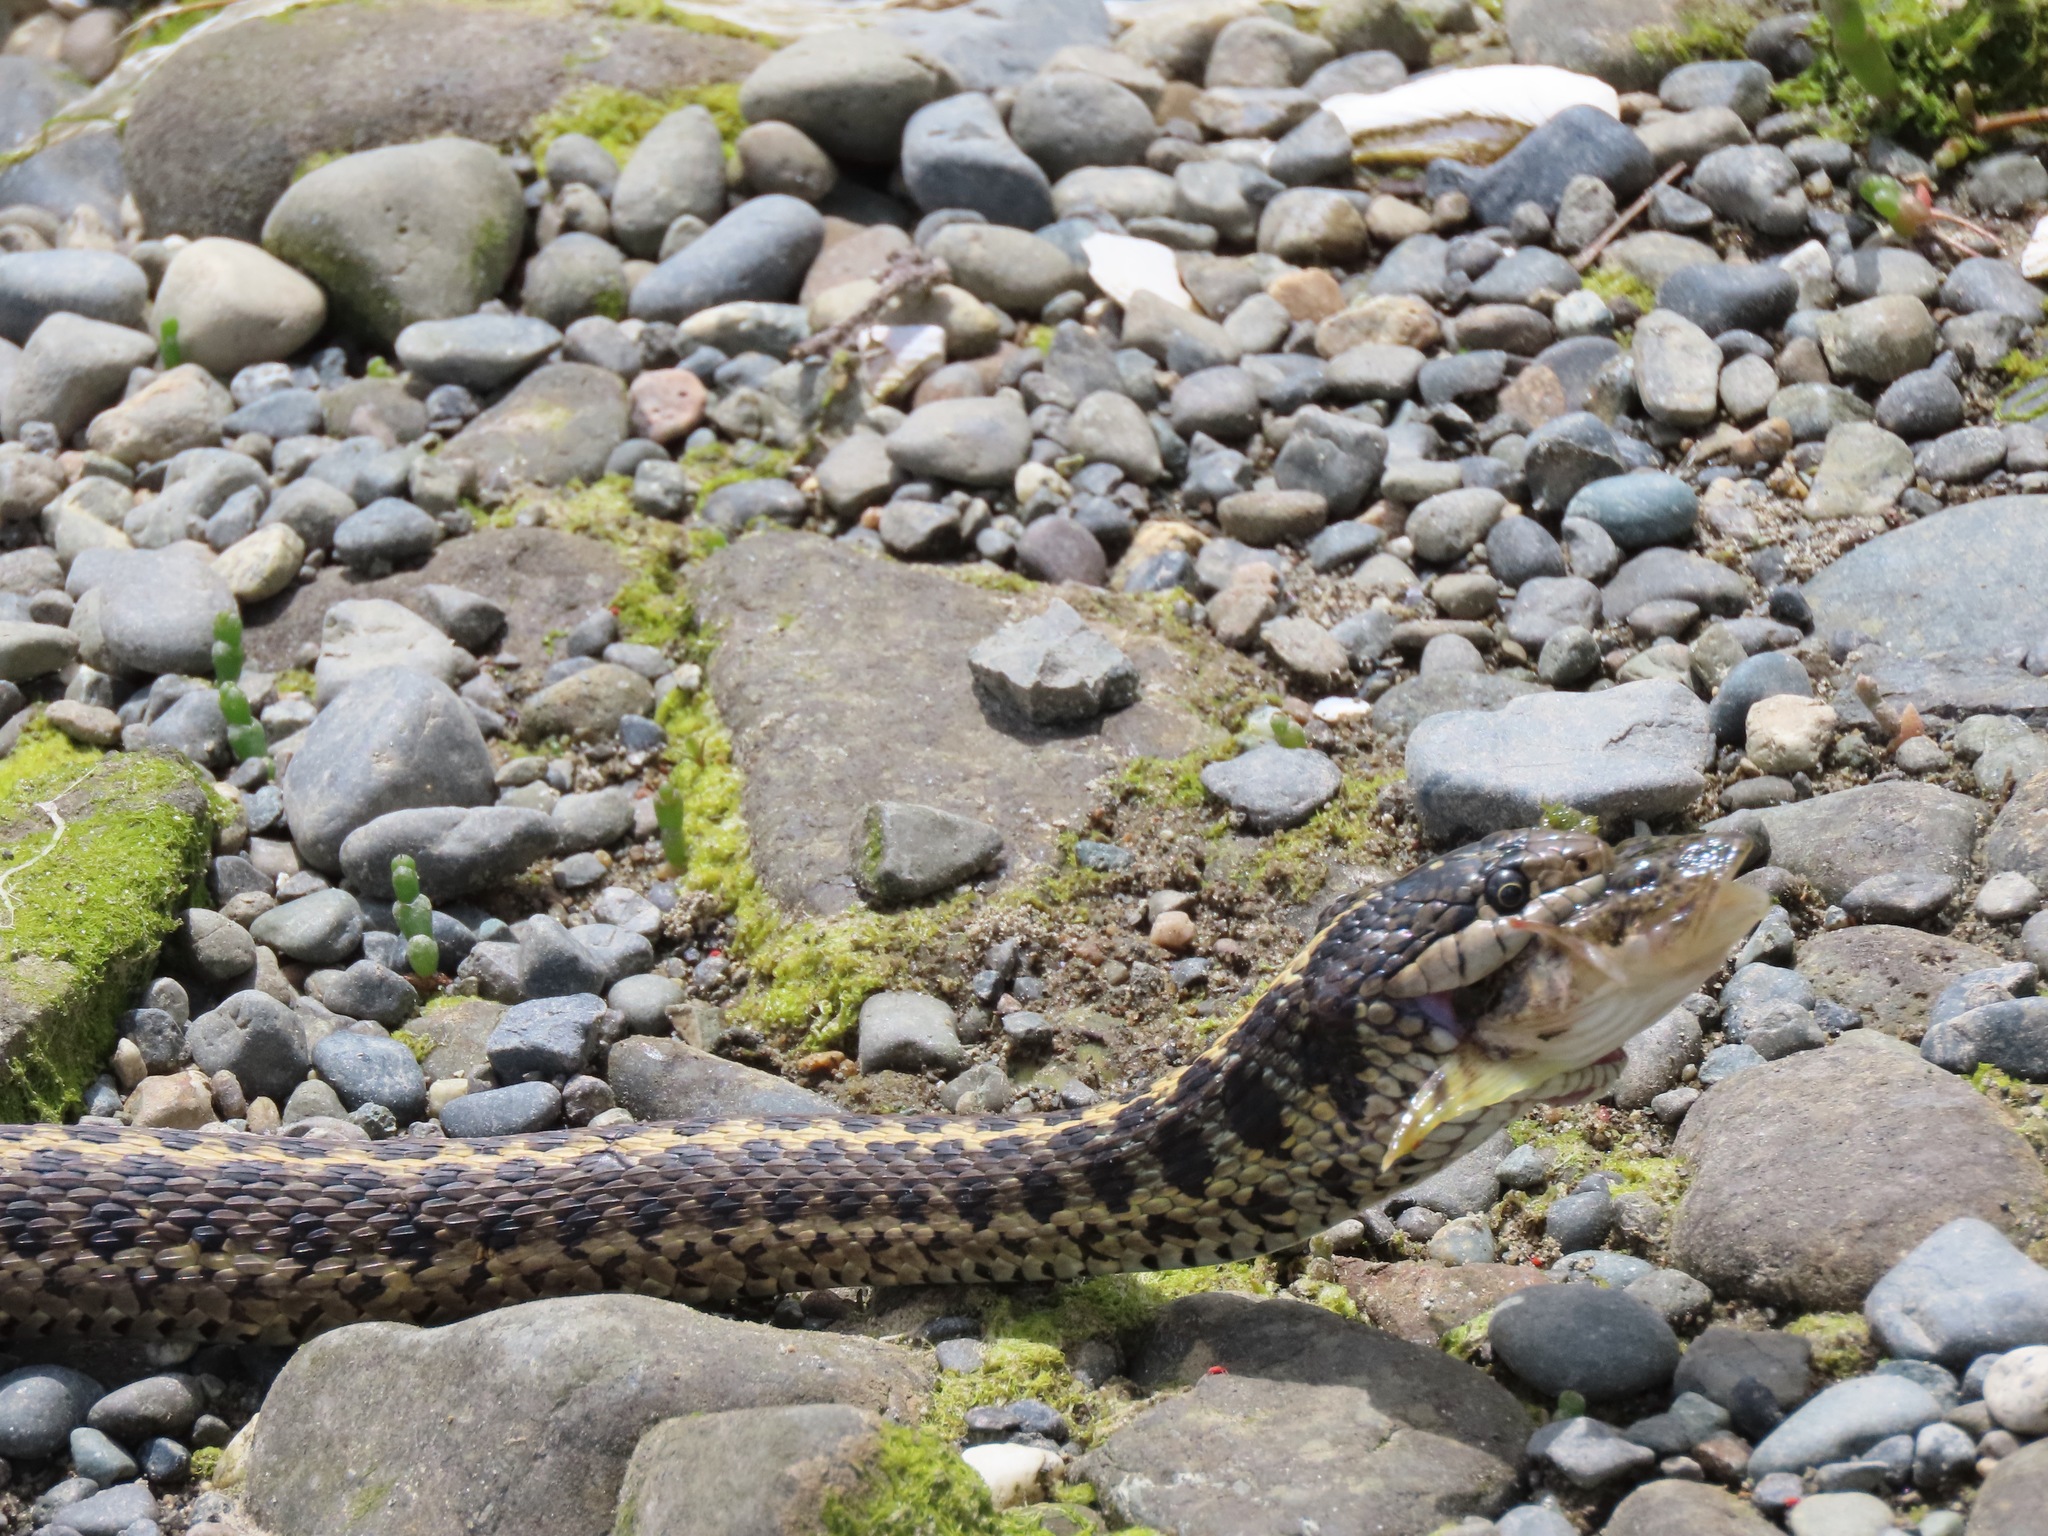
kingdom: Animalia
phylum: Chordata
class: Squamata
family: Colubridae
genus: Thamnophis
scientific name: Thamnophis elegans
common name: Western terrestrial garter snake
